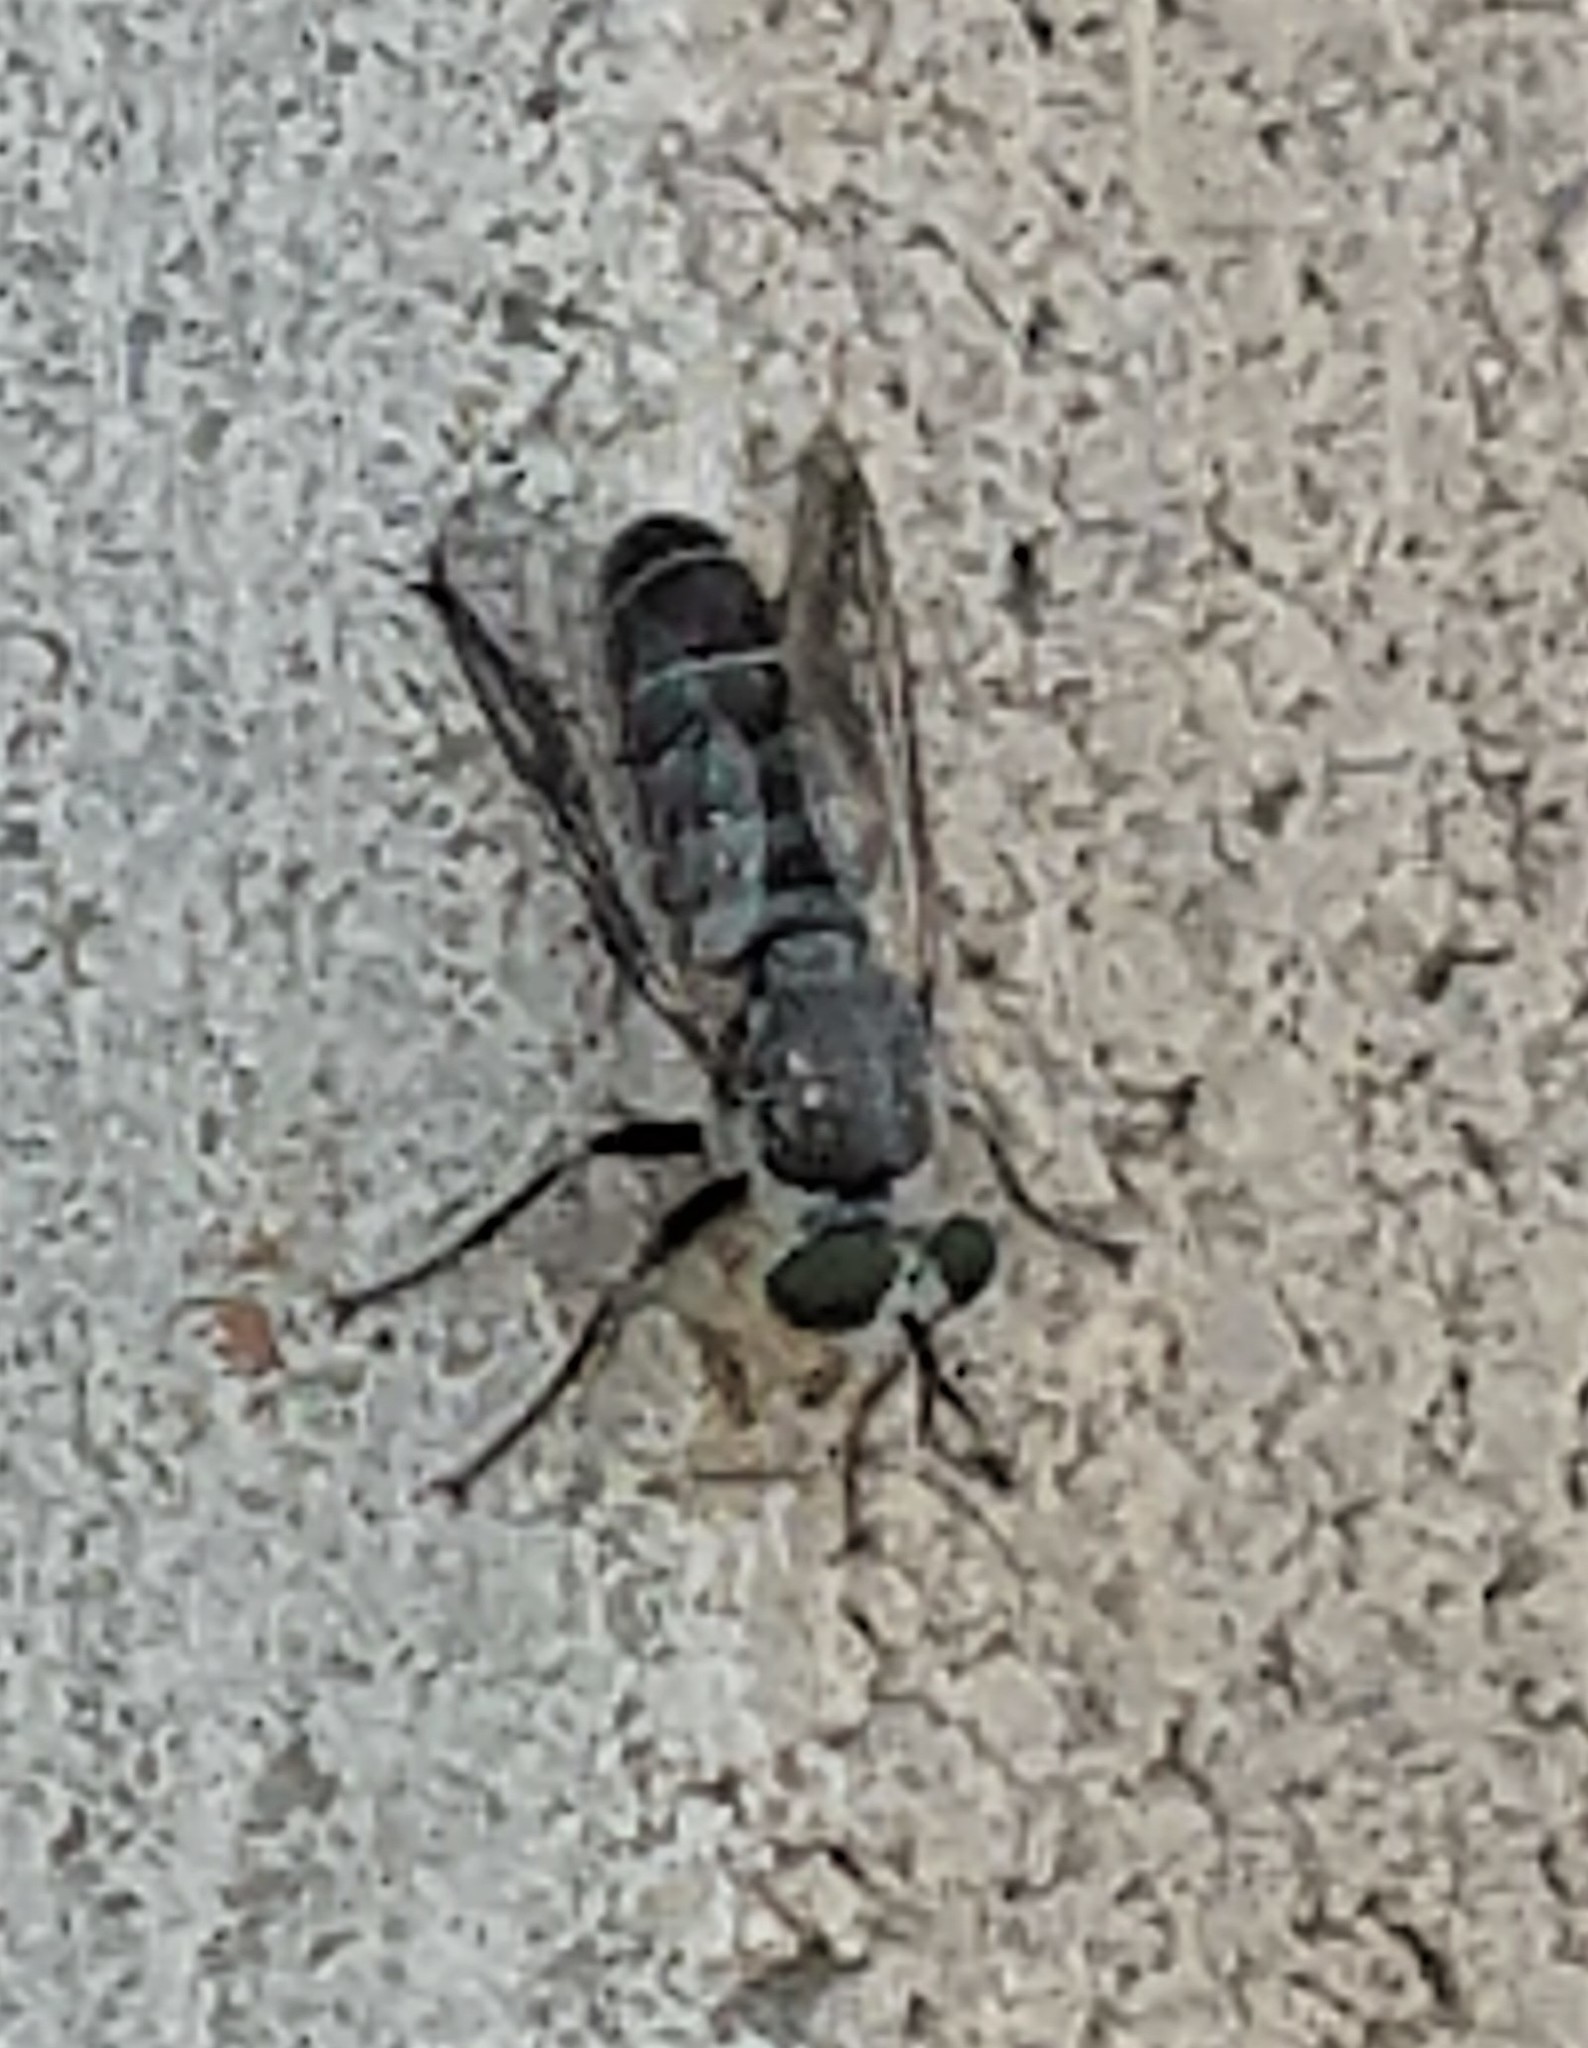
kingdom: Animalia
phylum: Arthropoda
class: Insecta
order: Diptera
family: Asilidae
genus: Atomosia
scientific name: Atomosia
